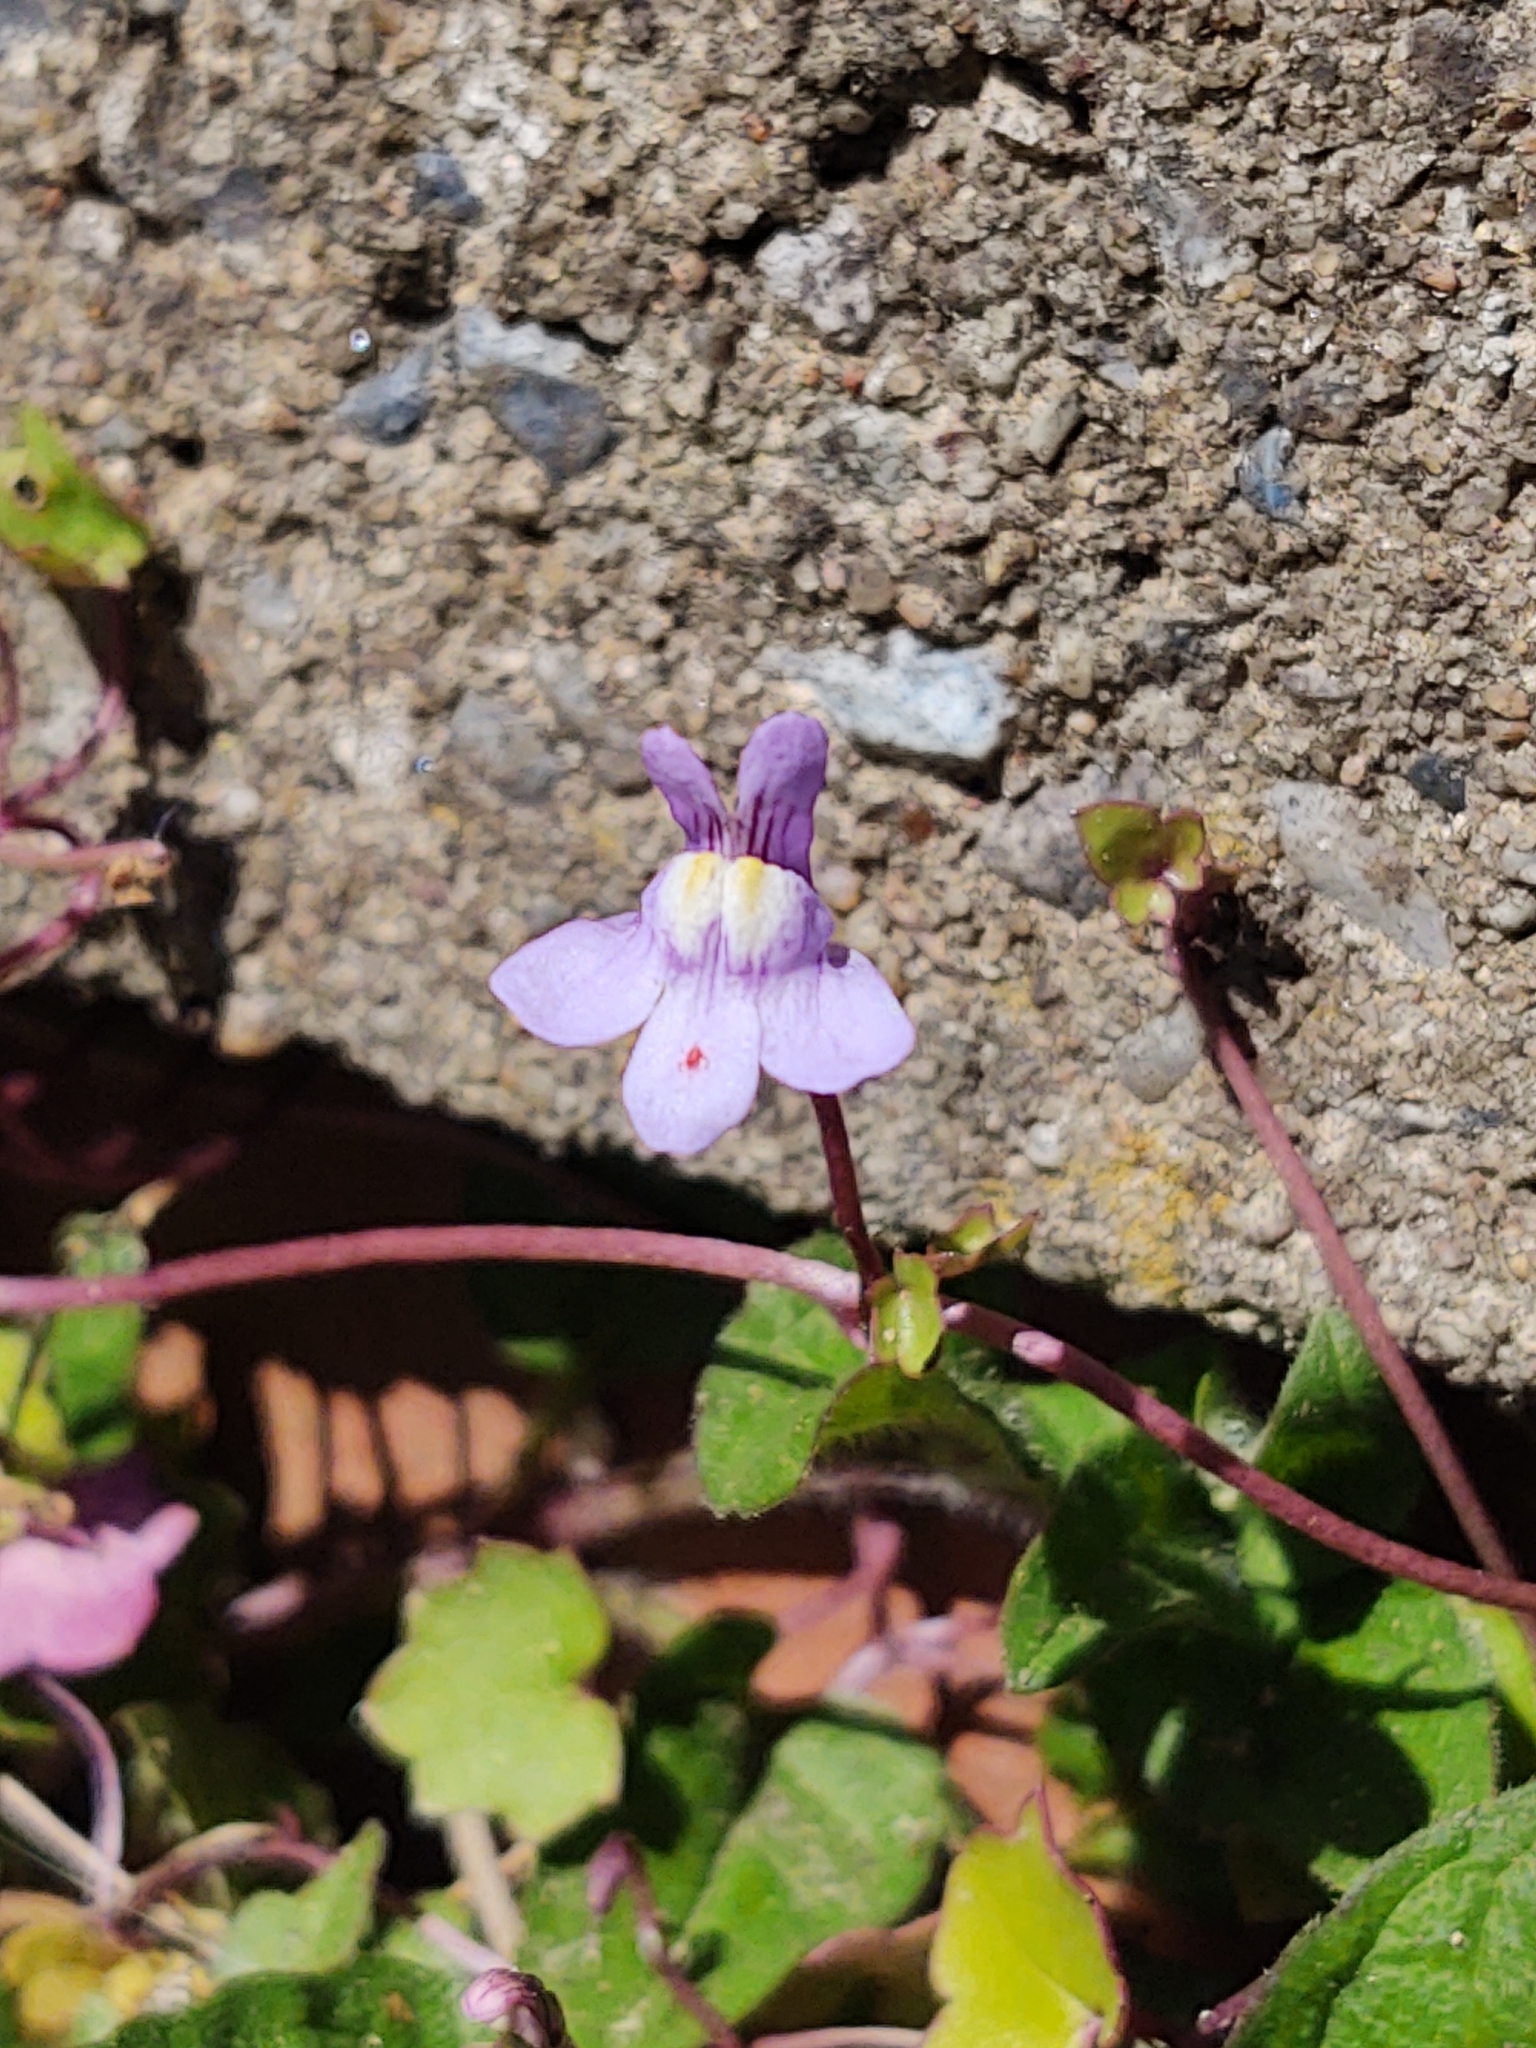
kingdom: Plantae
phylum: Tracheophyta
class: Magnoliopsida
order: Lamiales
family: Plantaginaceae
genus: Cymbalaria
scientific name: Cymbalaria muralis
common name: Ivy-leaved toadflax
